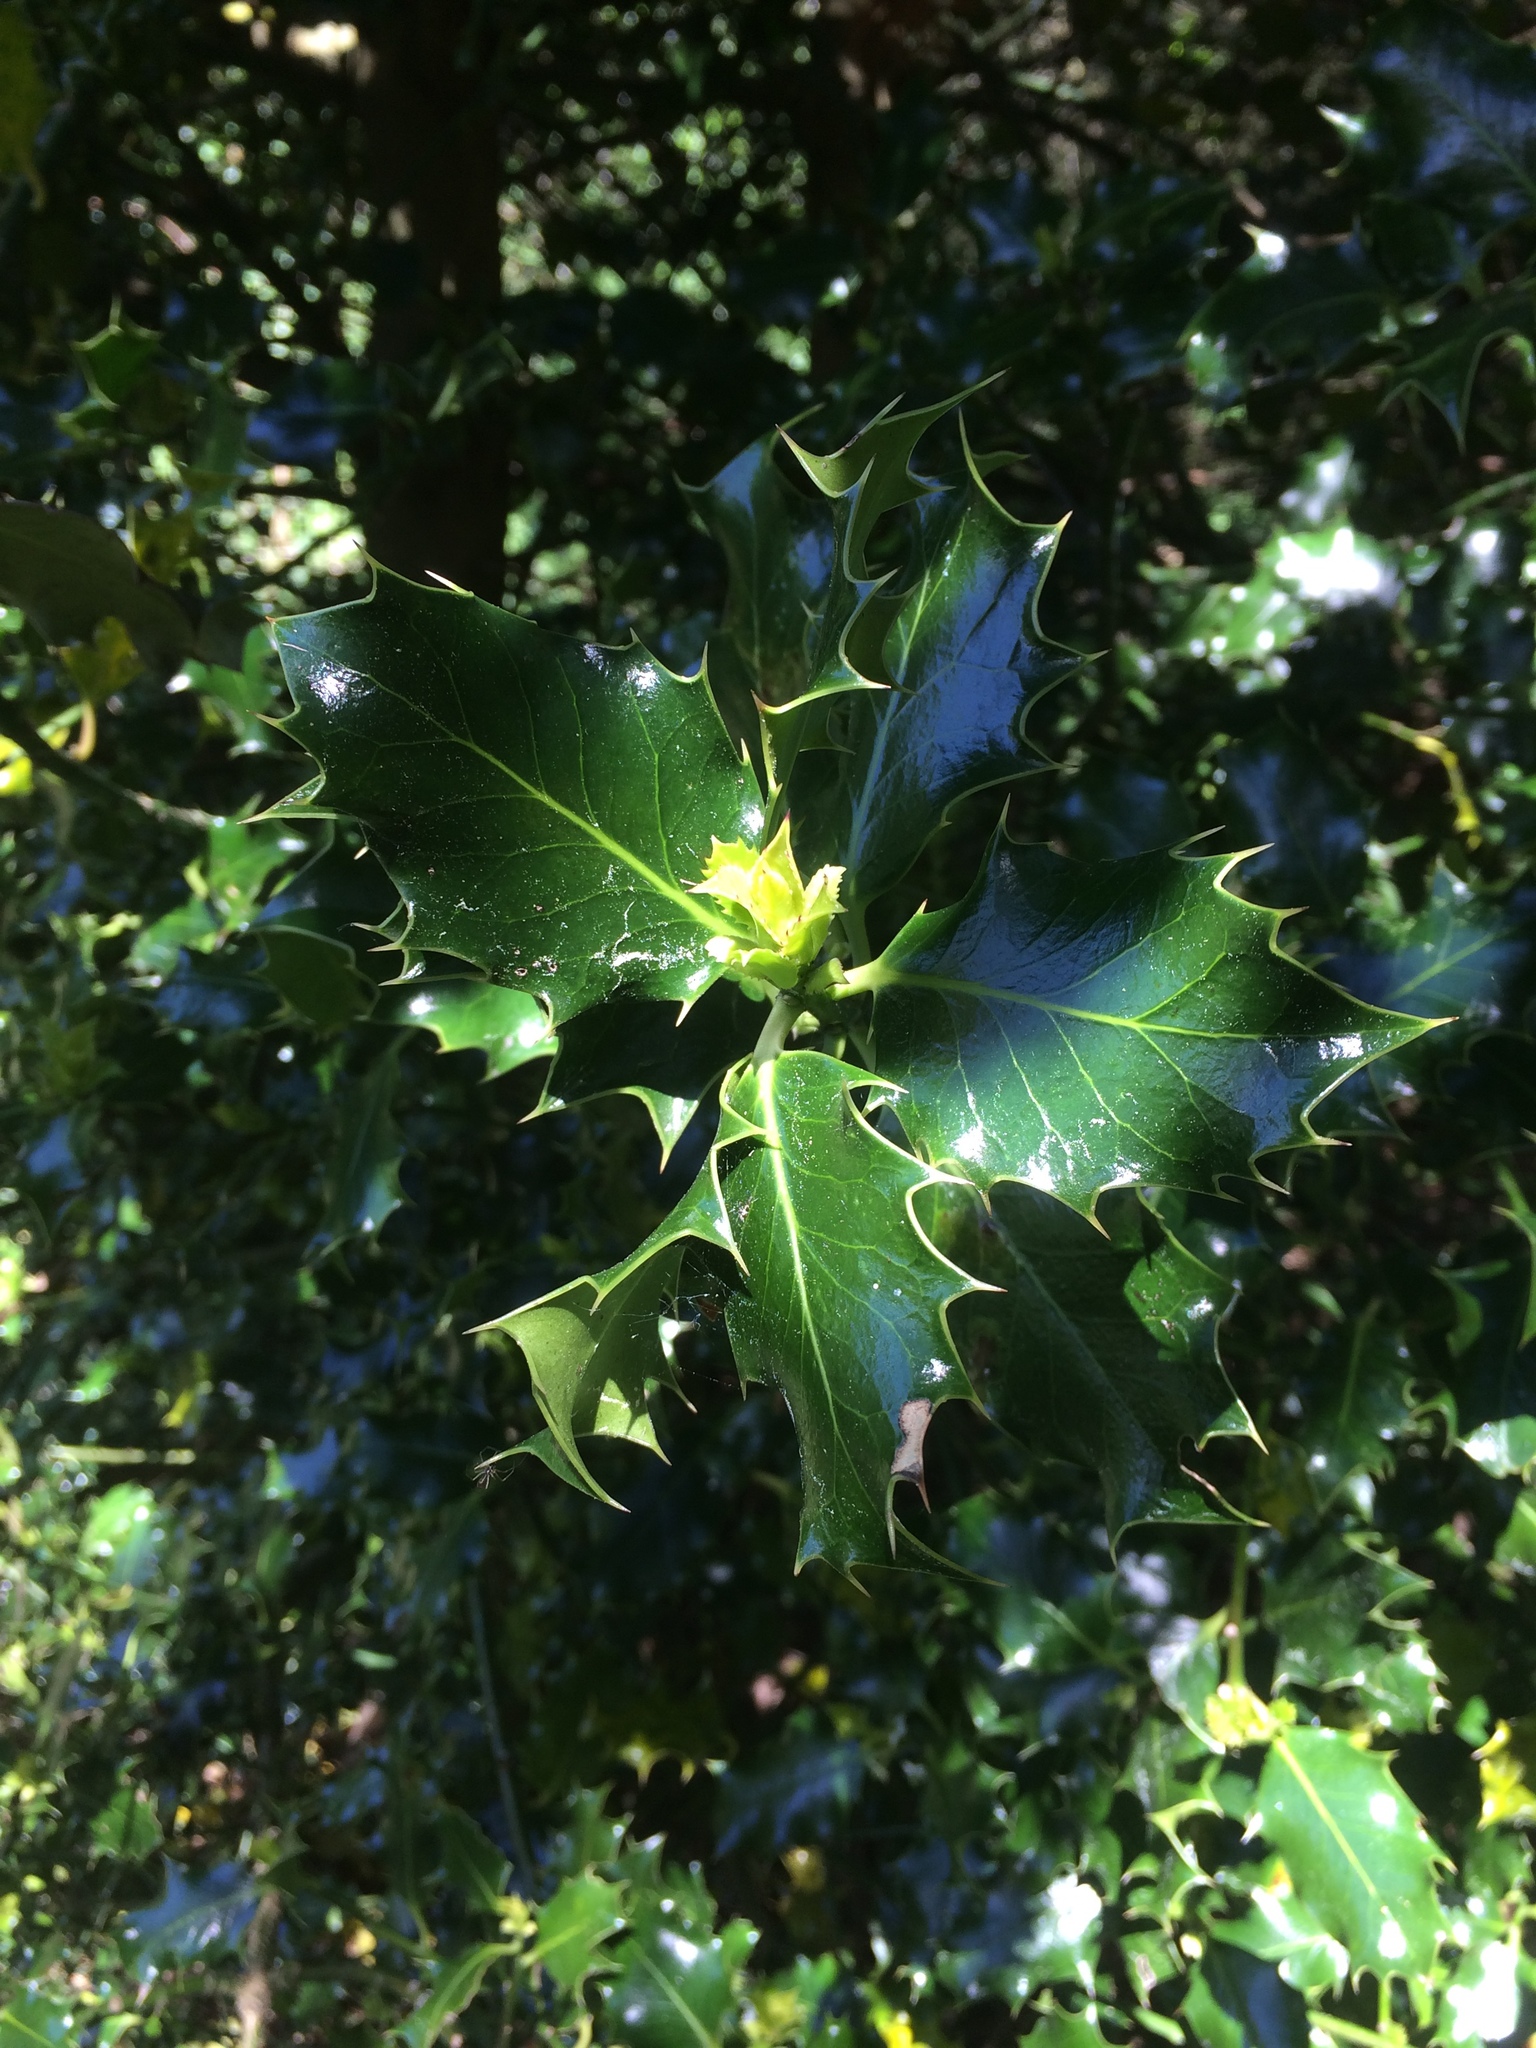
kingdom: Plantae
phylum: Tracheophyta
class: Magnoliopsida
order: Aquifoliales
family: Aquifoliaceae
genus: Ilex
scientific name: Ilex aquifolium
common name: English holly
